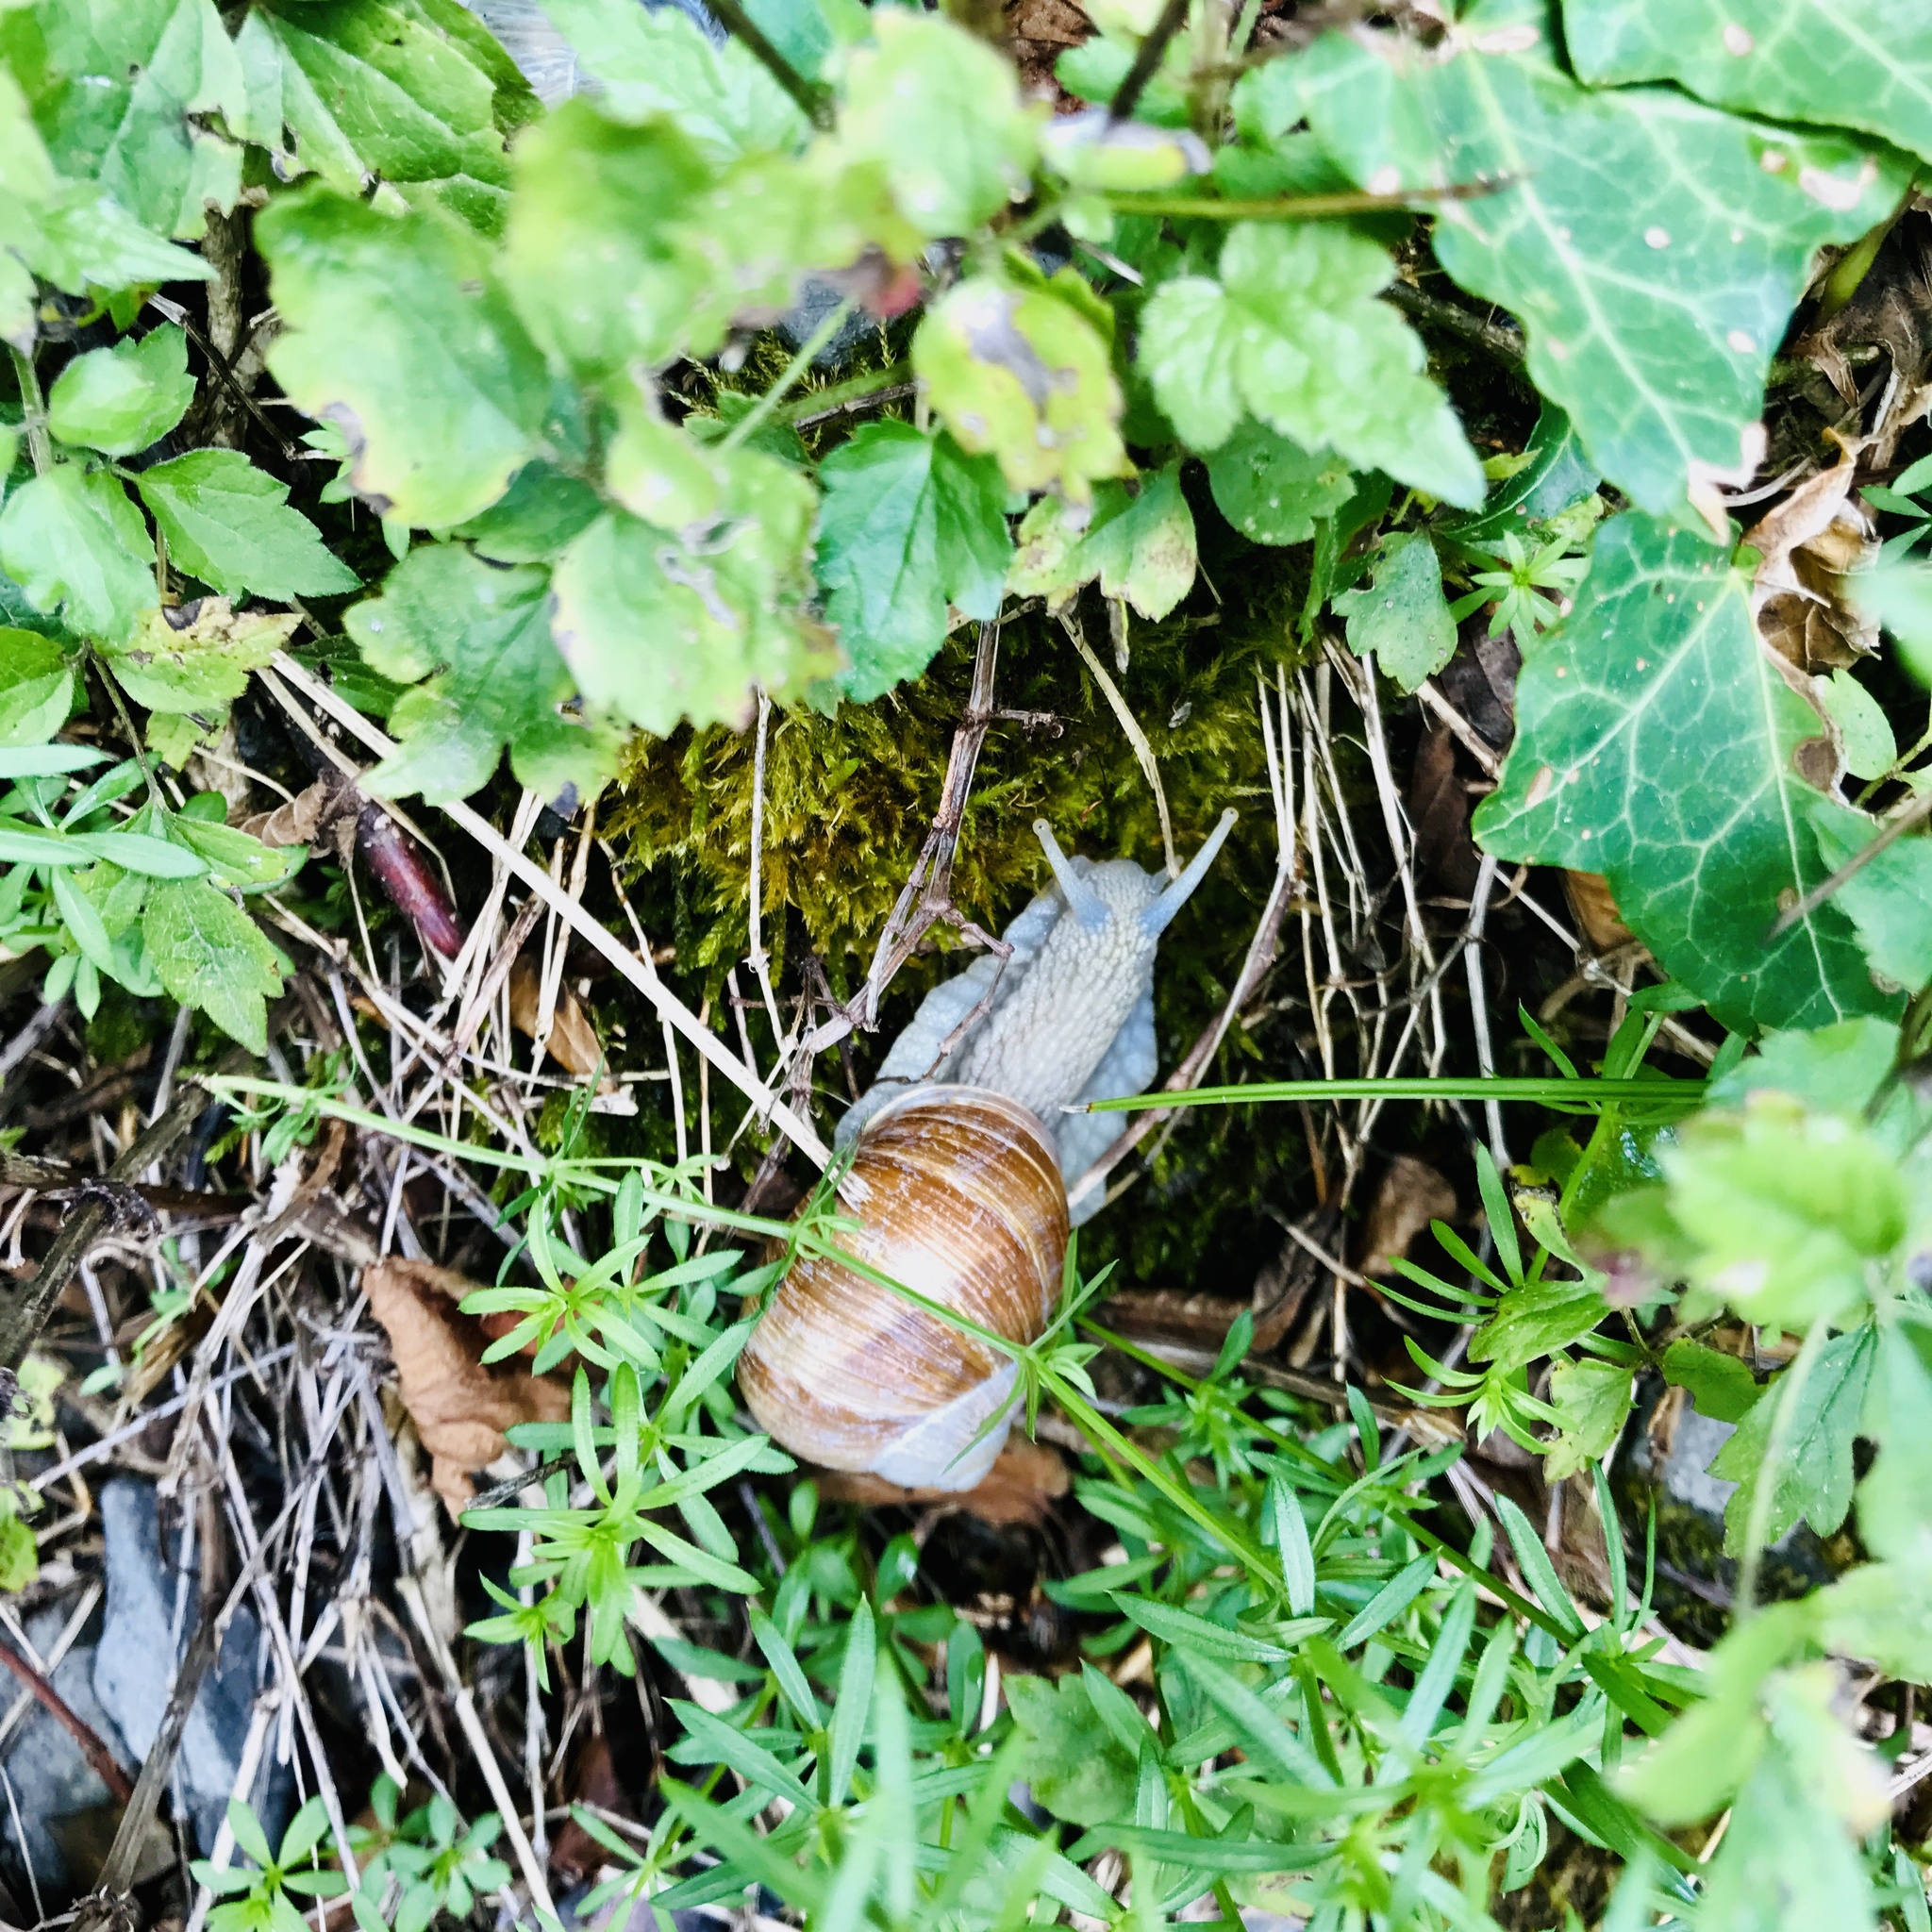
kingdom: Animalia
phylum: Mollusca
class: Gastropoda
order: Stylommatophora
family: Helicidae
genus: Helix
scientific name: Helix pomatia
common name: Roman snail
